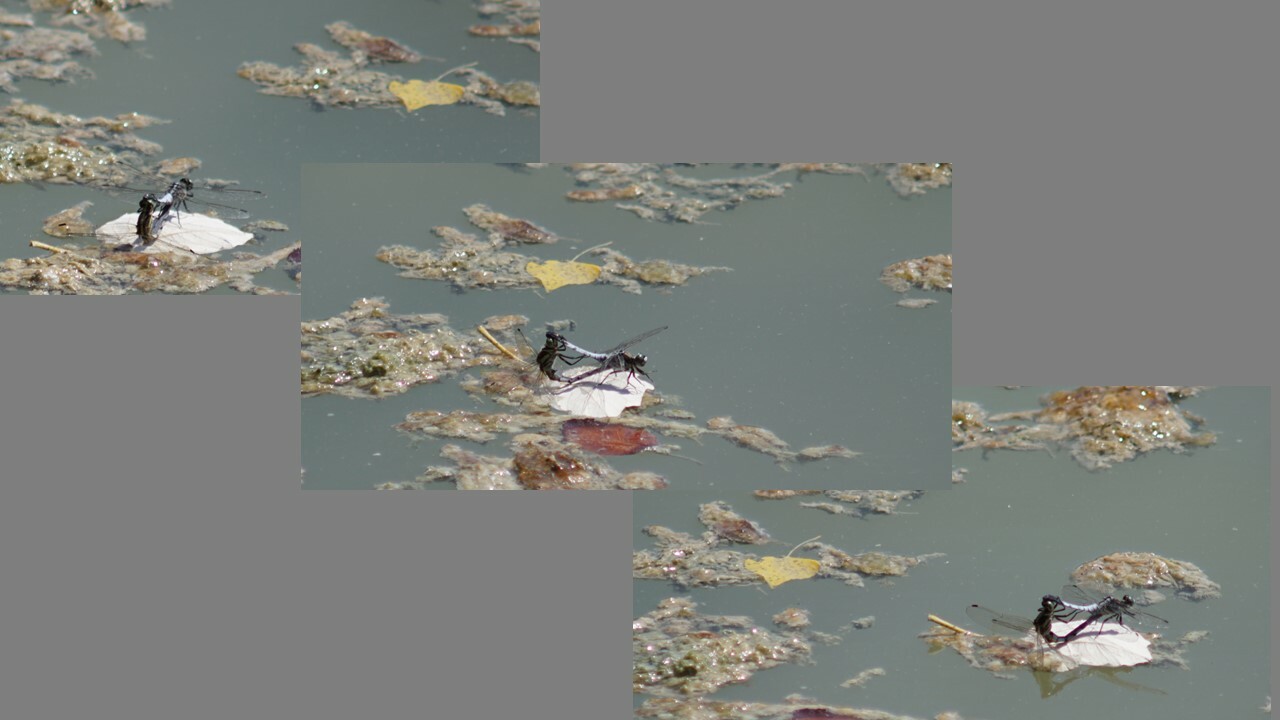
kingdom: Animalia
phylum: Arthropoda
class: Insecta
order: Odonata
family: Libellulidae
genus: Orthetrum
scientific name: Orthetrum albistylum
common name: White-tailed skimmer
